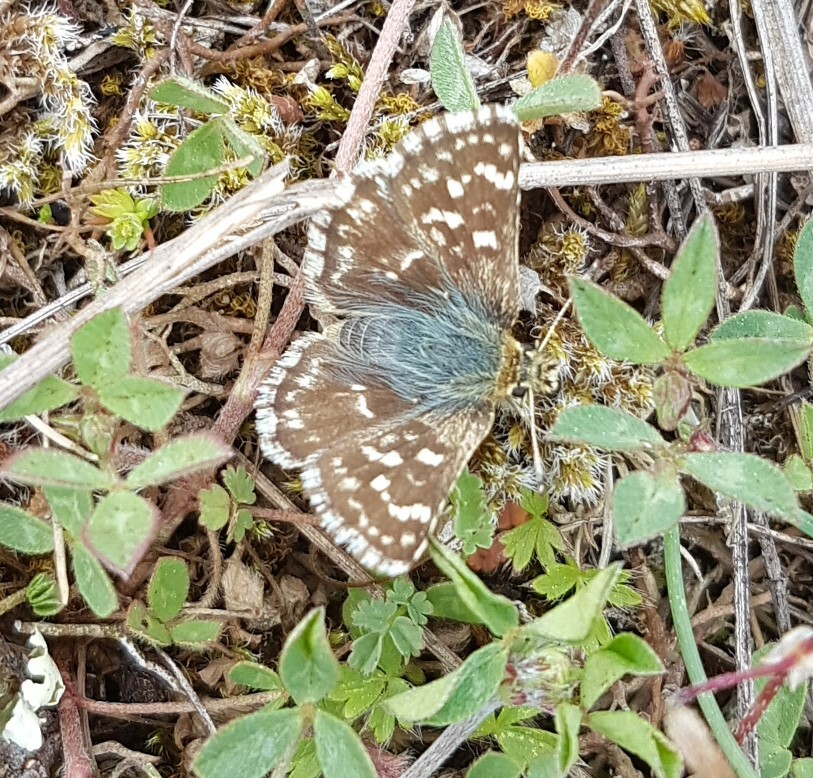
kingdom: Animalia
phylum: Arthropoda
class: Insecta
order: Lepidoptera
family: Hesperiidae
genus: Spialia
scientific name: Spialia sertorius
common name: Red underwing skipper
